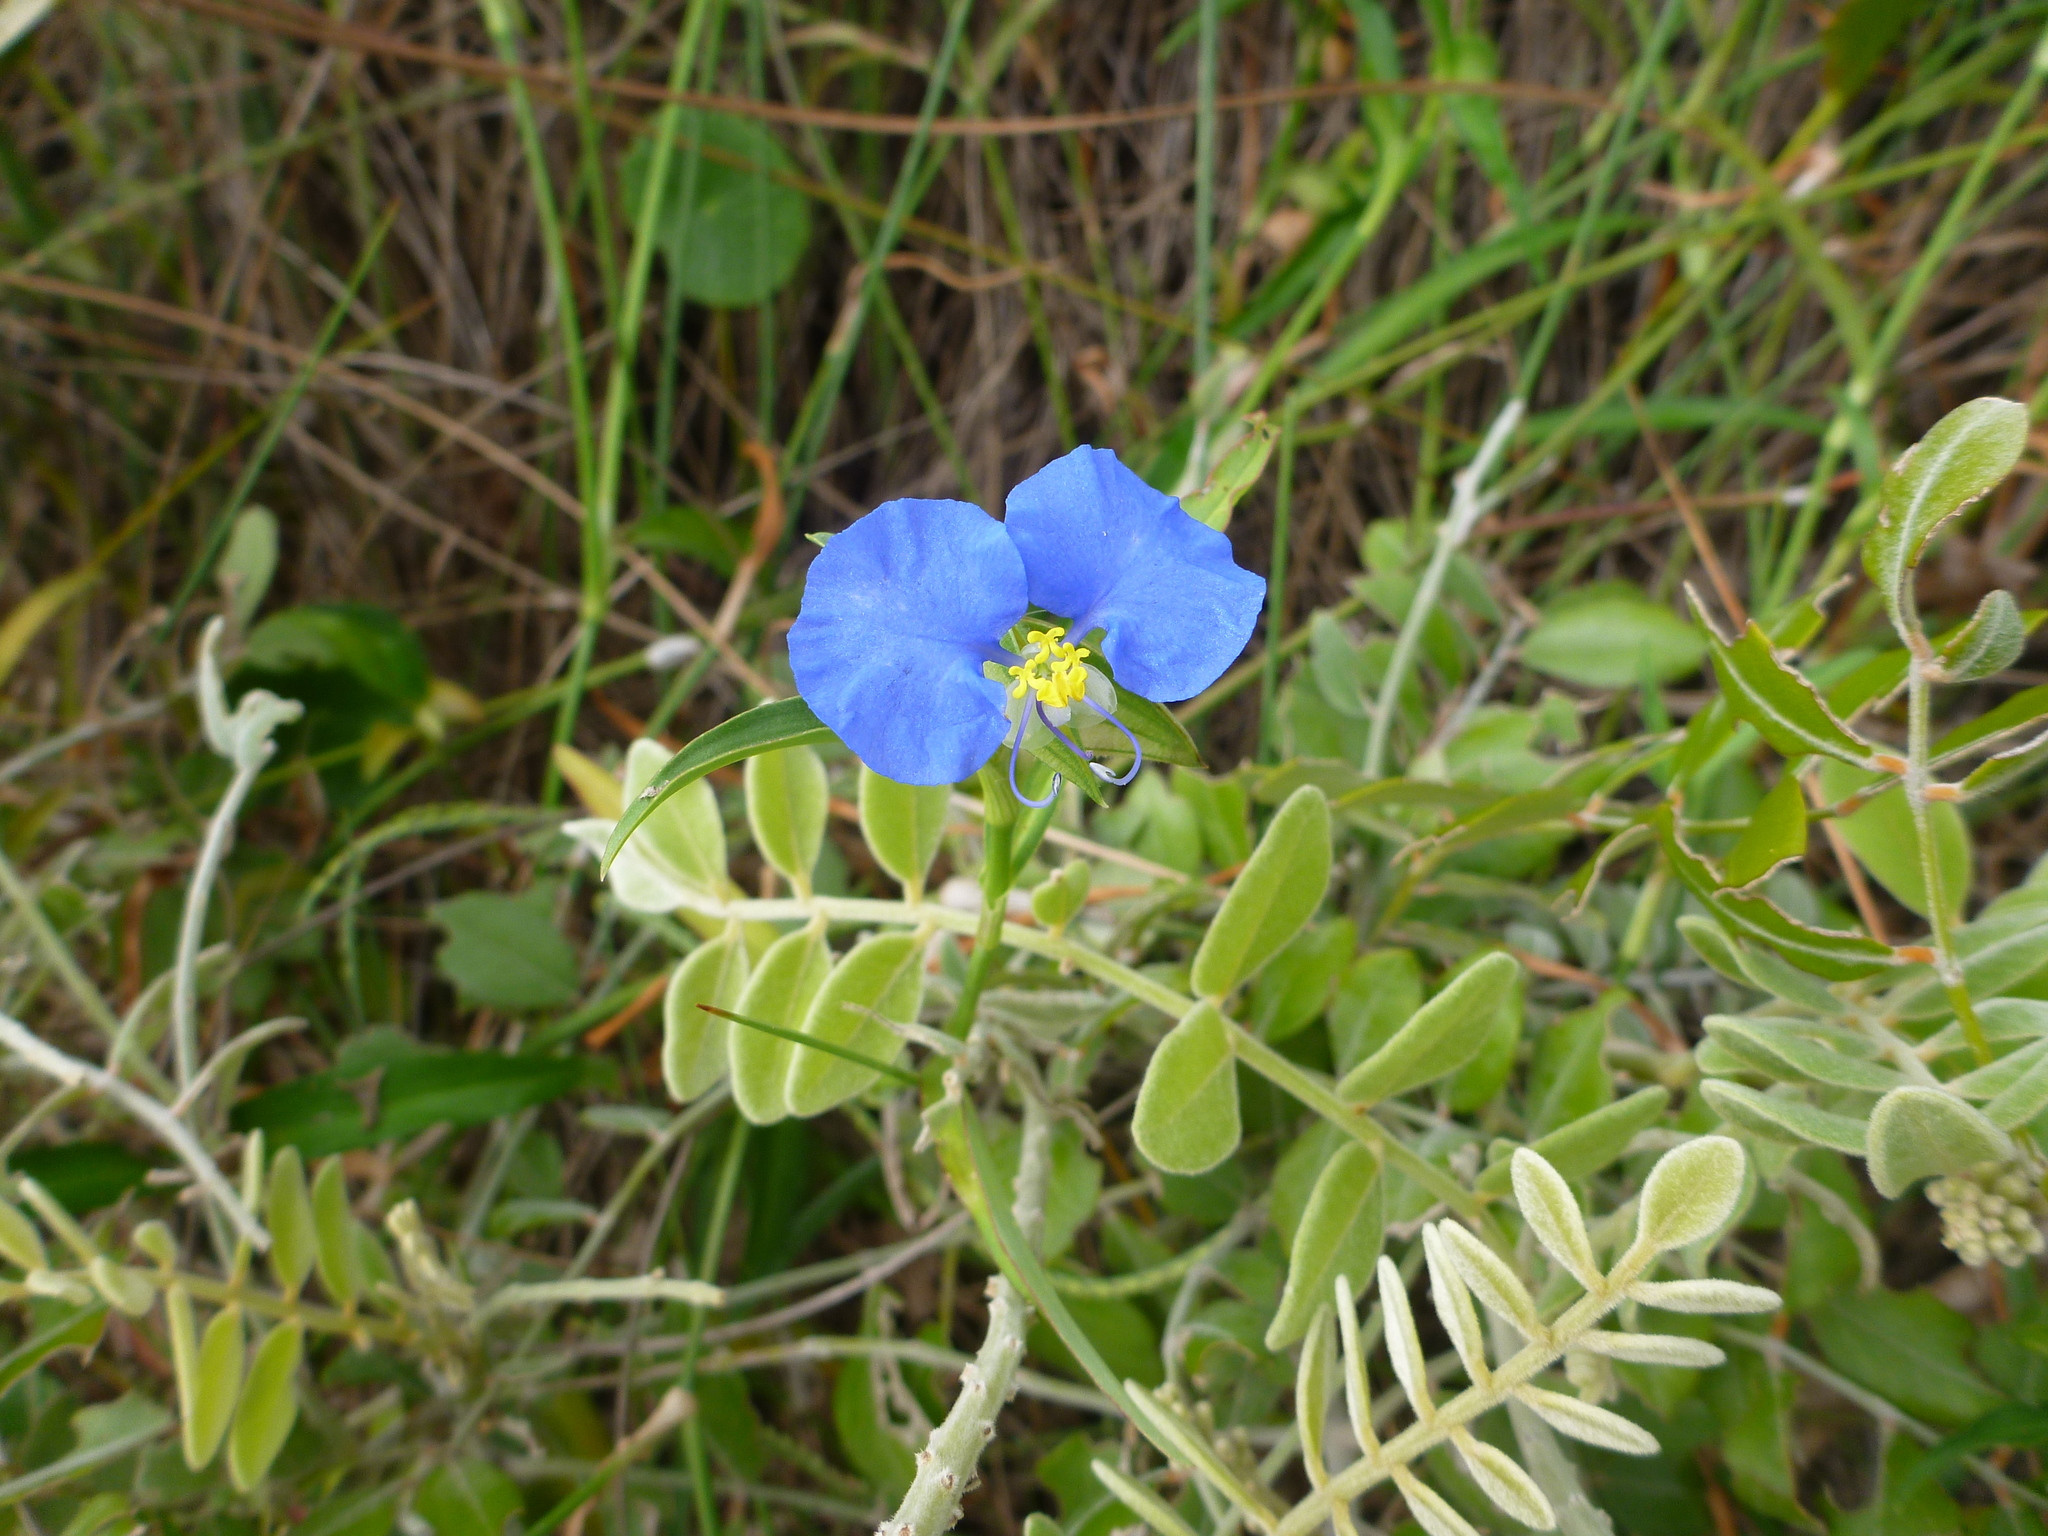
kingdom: Plantae
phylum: Tracheophyta
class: Liliopsida
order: Commelinales
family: Commelinaceae
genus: Commelina
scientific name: Commelina erecta
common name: Blousel blommetjie
